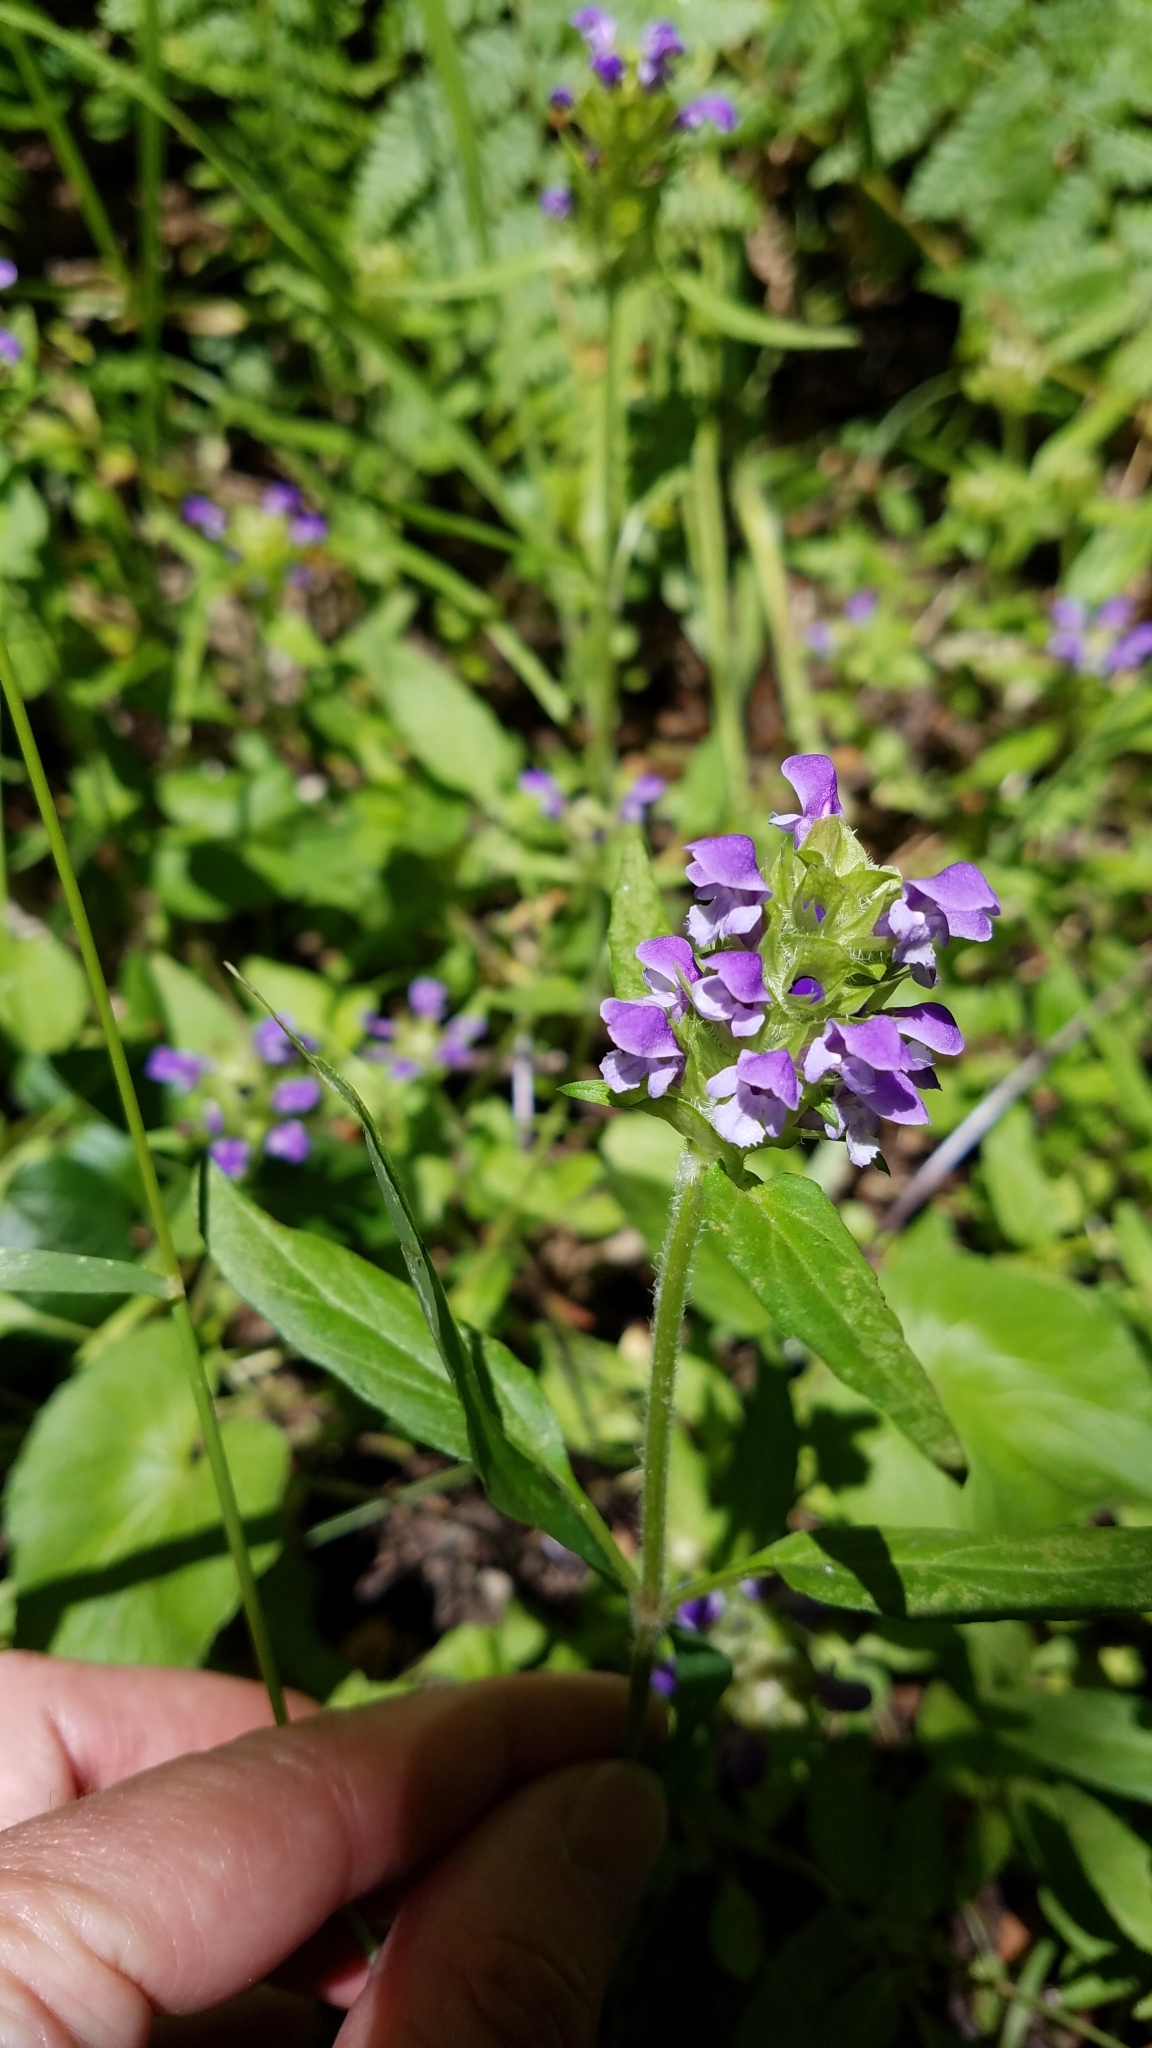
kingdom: Plantae
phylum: Tracheophyta
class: Magnoliopsida
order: Lamiales
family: Lamiaceae
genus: Prunella
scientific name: Prunella vulgaris
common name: Heal-all
